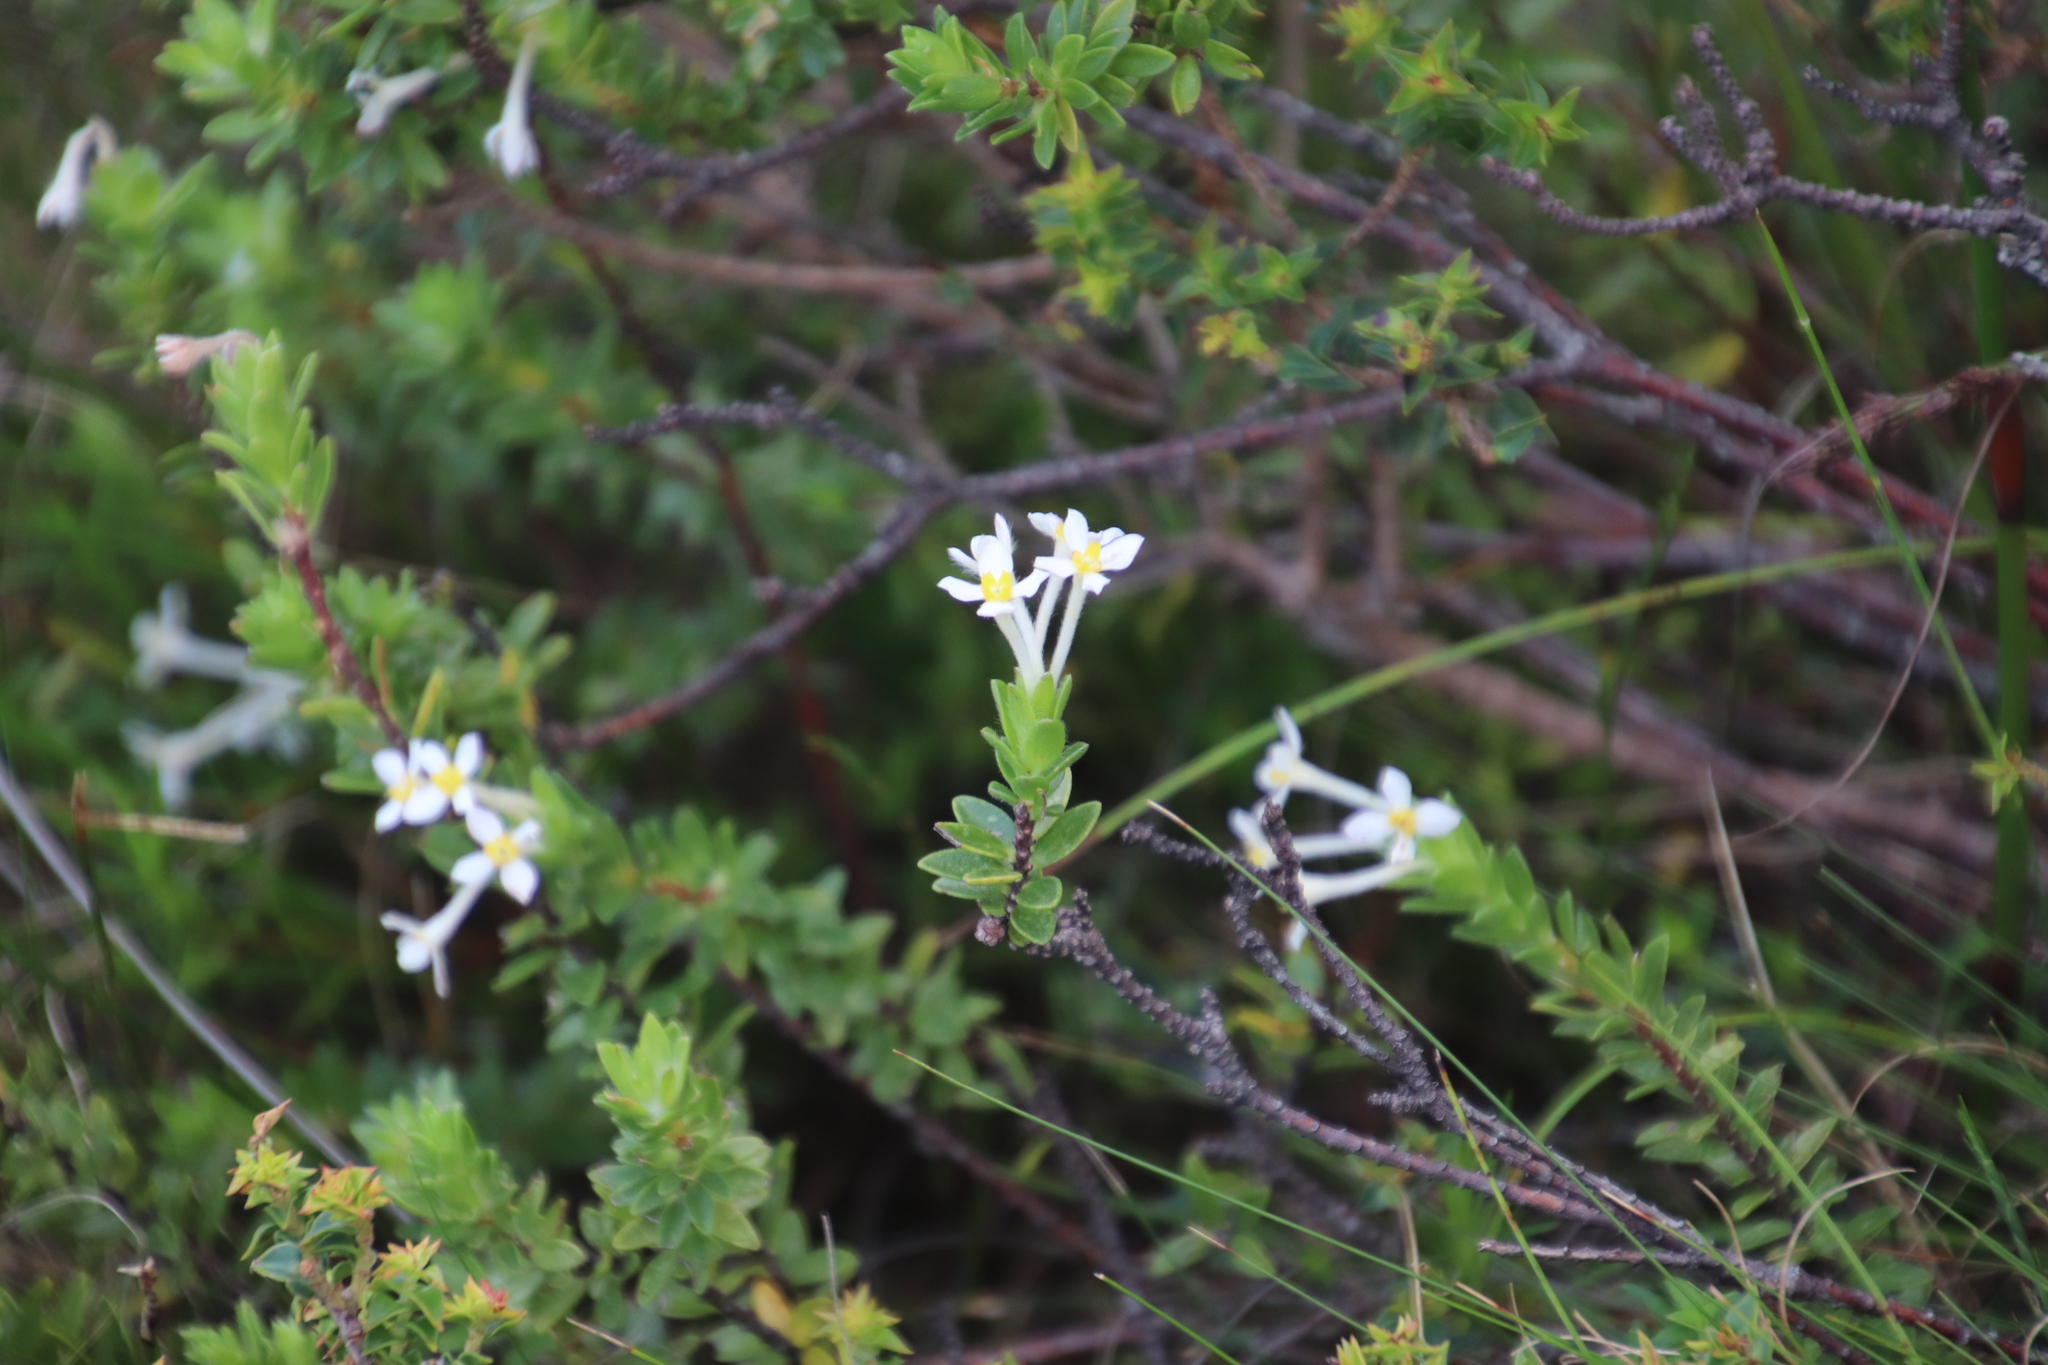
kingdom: Plantae
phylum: Tracheophyta
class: Magnoliopsida
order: Malvales
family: Thymelaeaceae
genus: Gnidia
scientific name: Gnidia tomentosa
